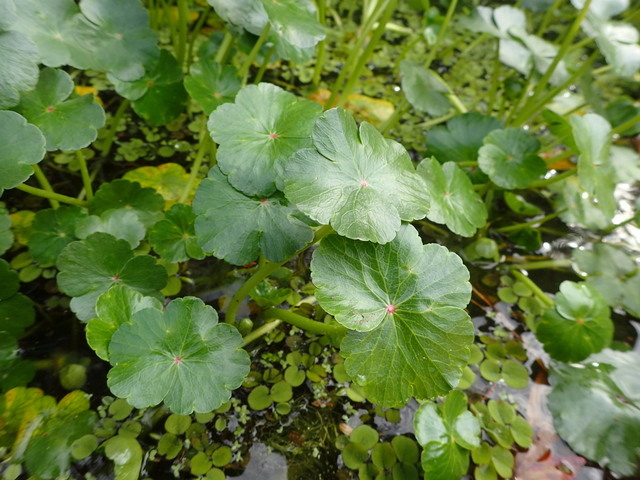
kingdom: Plantae
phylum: Tracheophyta
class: Magnoliopsida
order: Apiales
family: Araliaceae
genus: Hydrocotyle
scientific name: Hydrocotyle ranunculoides
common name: Floating pennywort
